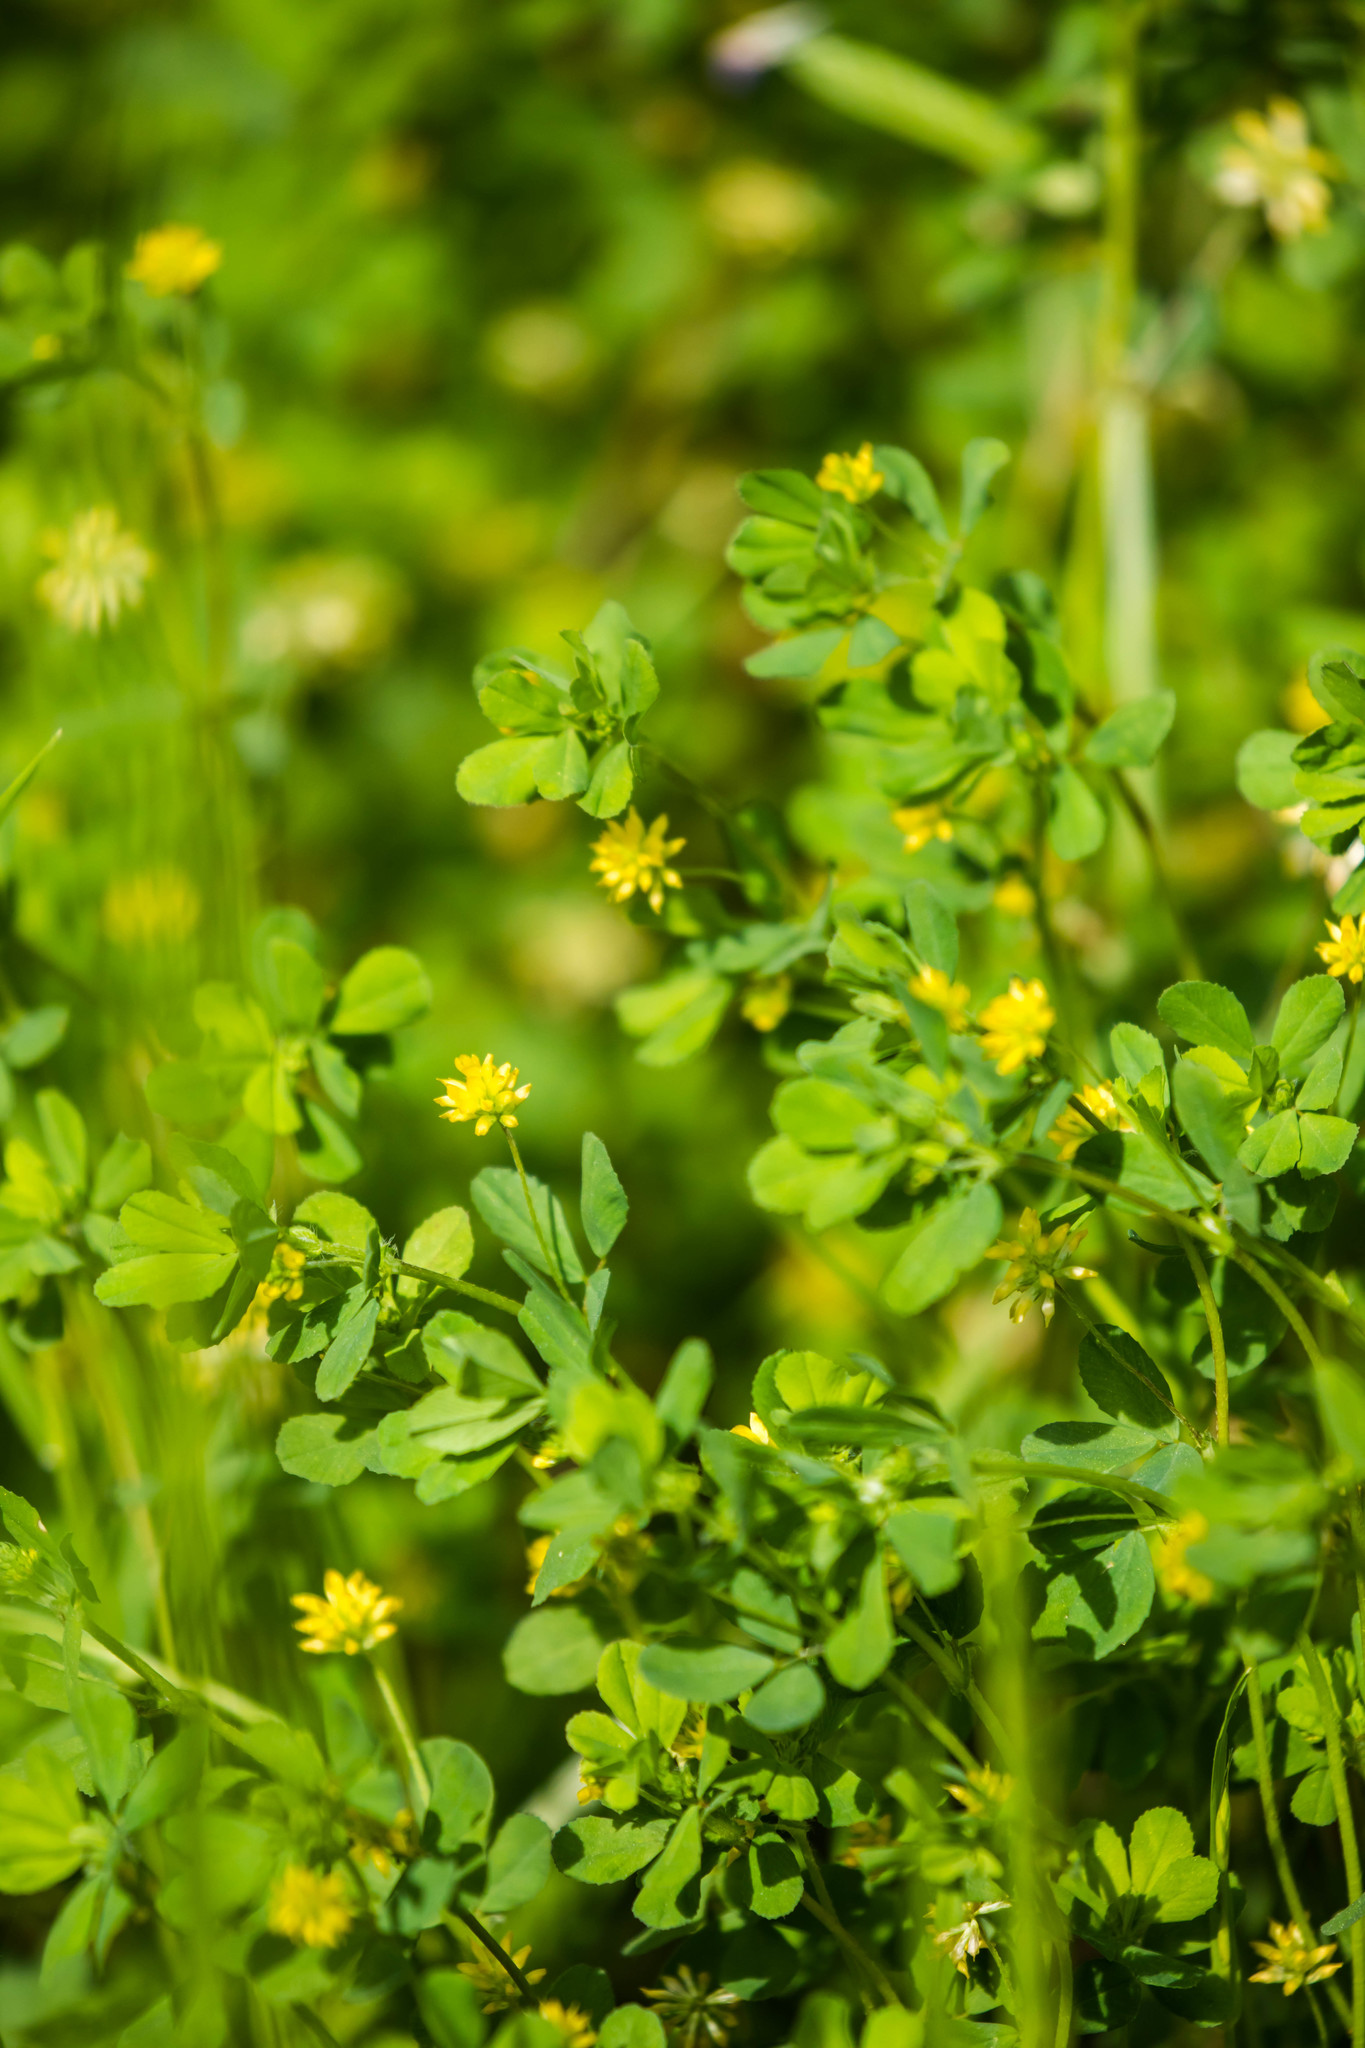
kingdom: Plantae
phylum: Tracheophyta
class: Magnoliopsida
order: Fabales
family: Fabaceae
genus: Trifolium
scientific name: Trifolium dubium
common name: Suckling clover
